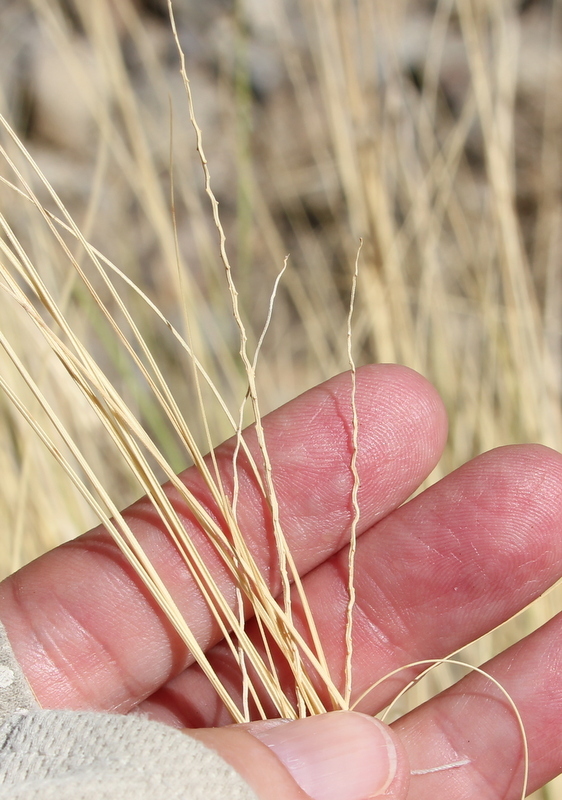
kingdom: Plantae
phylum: Tracheophyta
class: Liliopsida
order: Poales
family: Poaceae
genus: Hilaria
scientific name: Hilaria rigida
